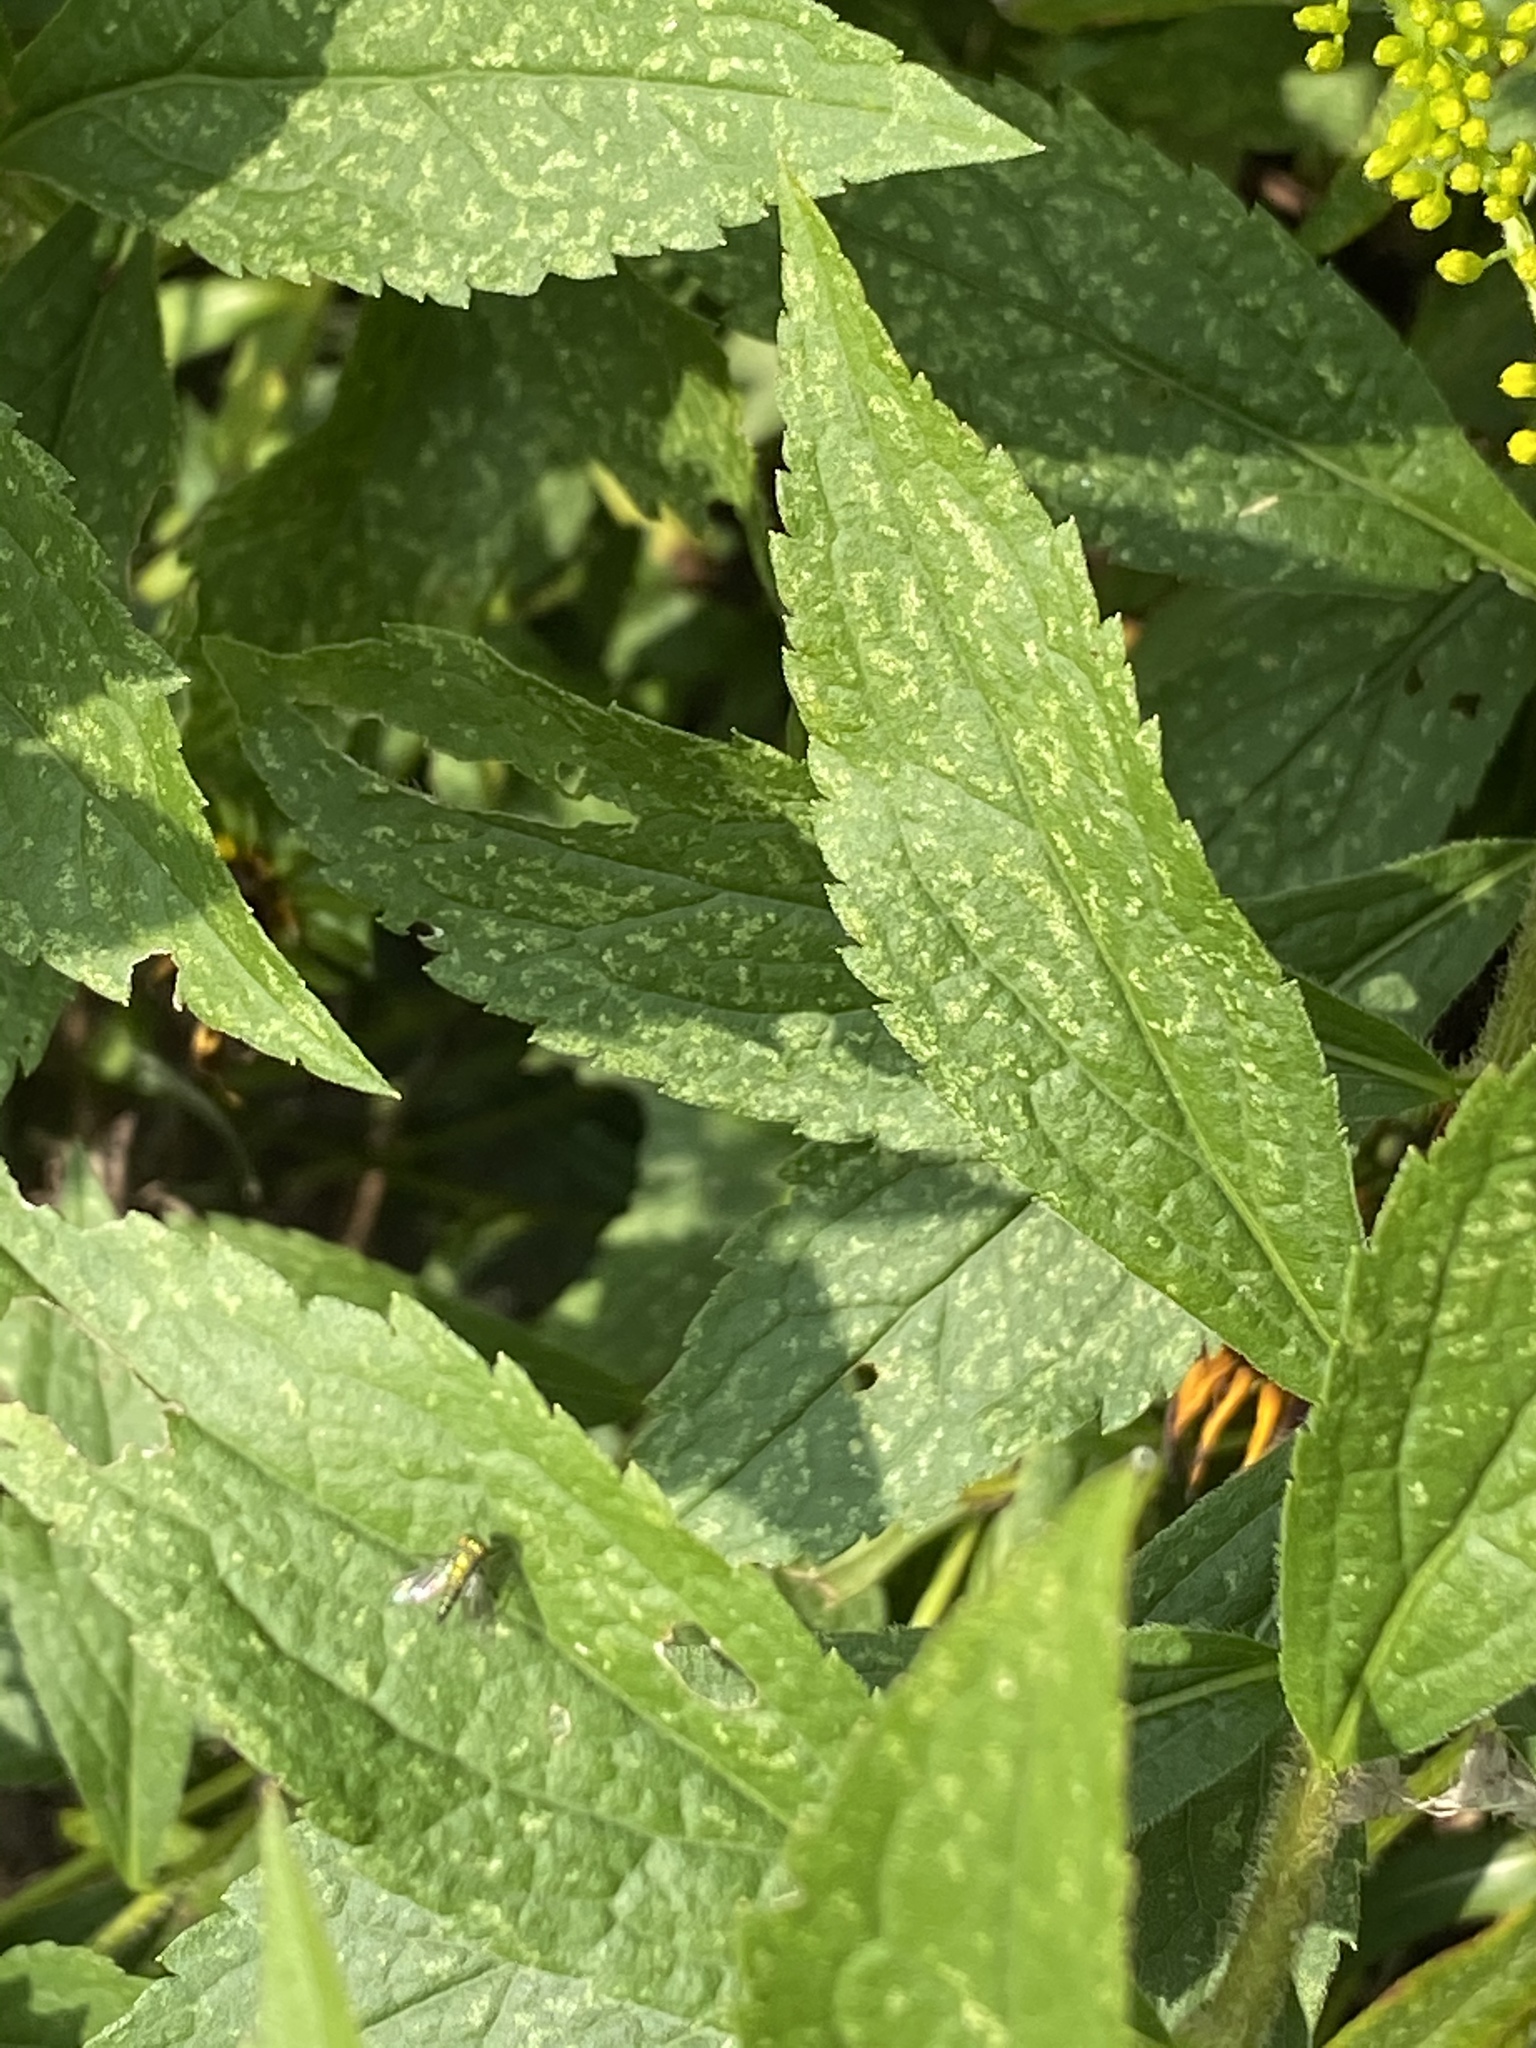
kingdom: Plantae
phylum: Tracheophyta
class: Magnoliopsida
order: Asterales
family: Asteraceae
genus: Solidago
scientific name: Solidago rugosa
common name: Rough-stemmed goldenrod
